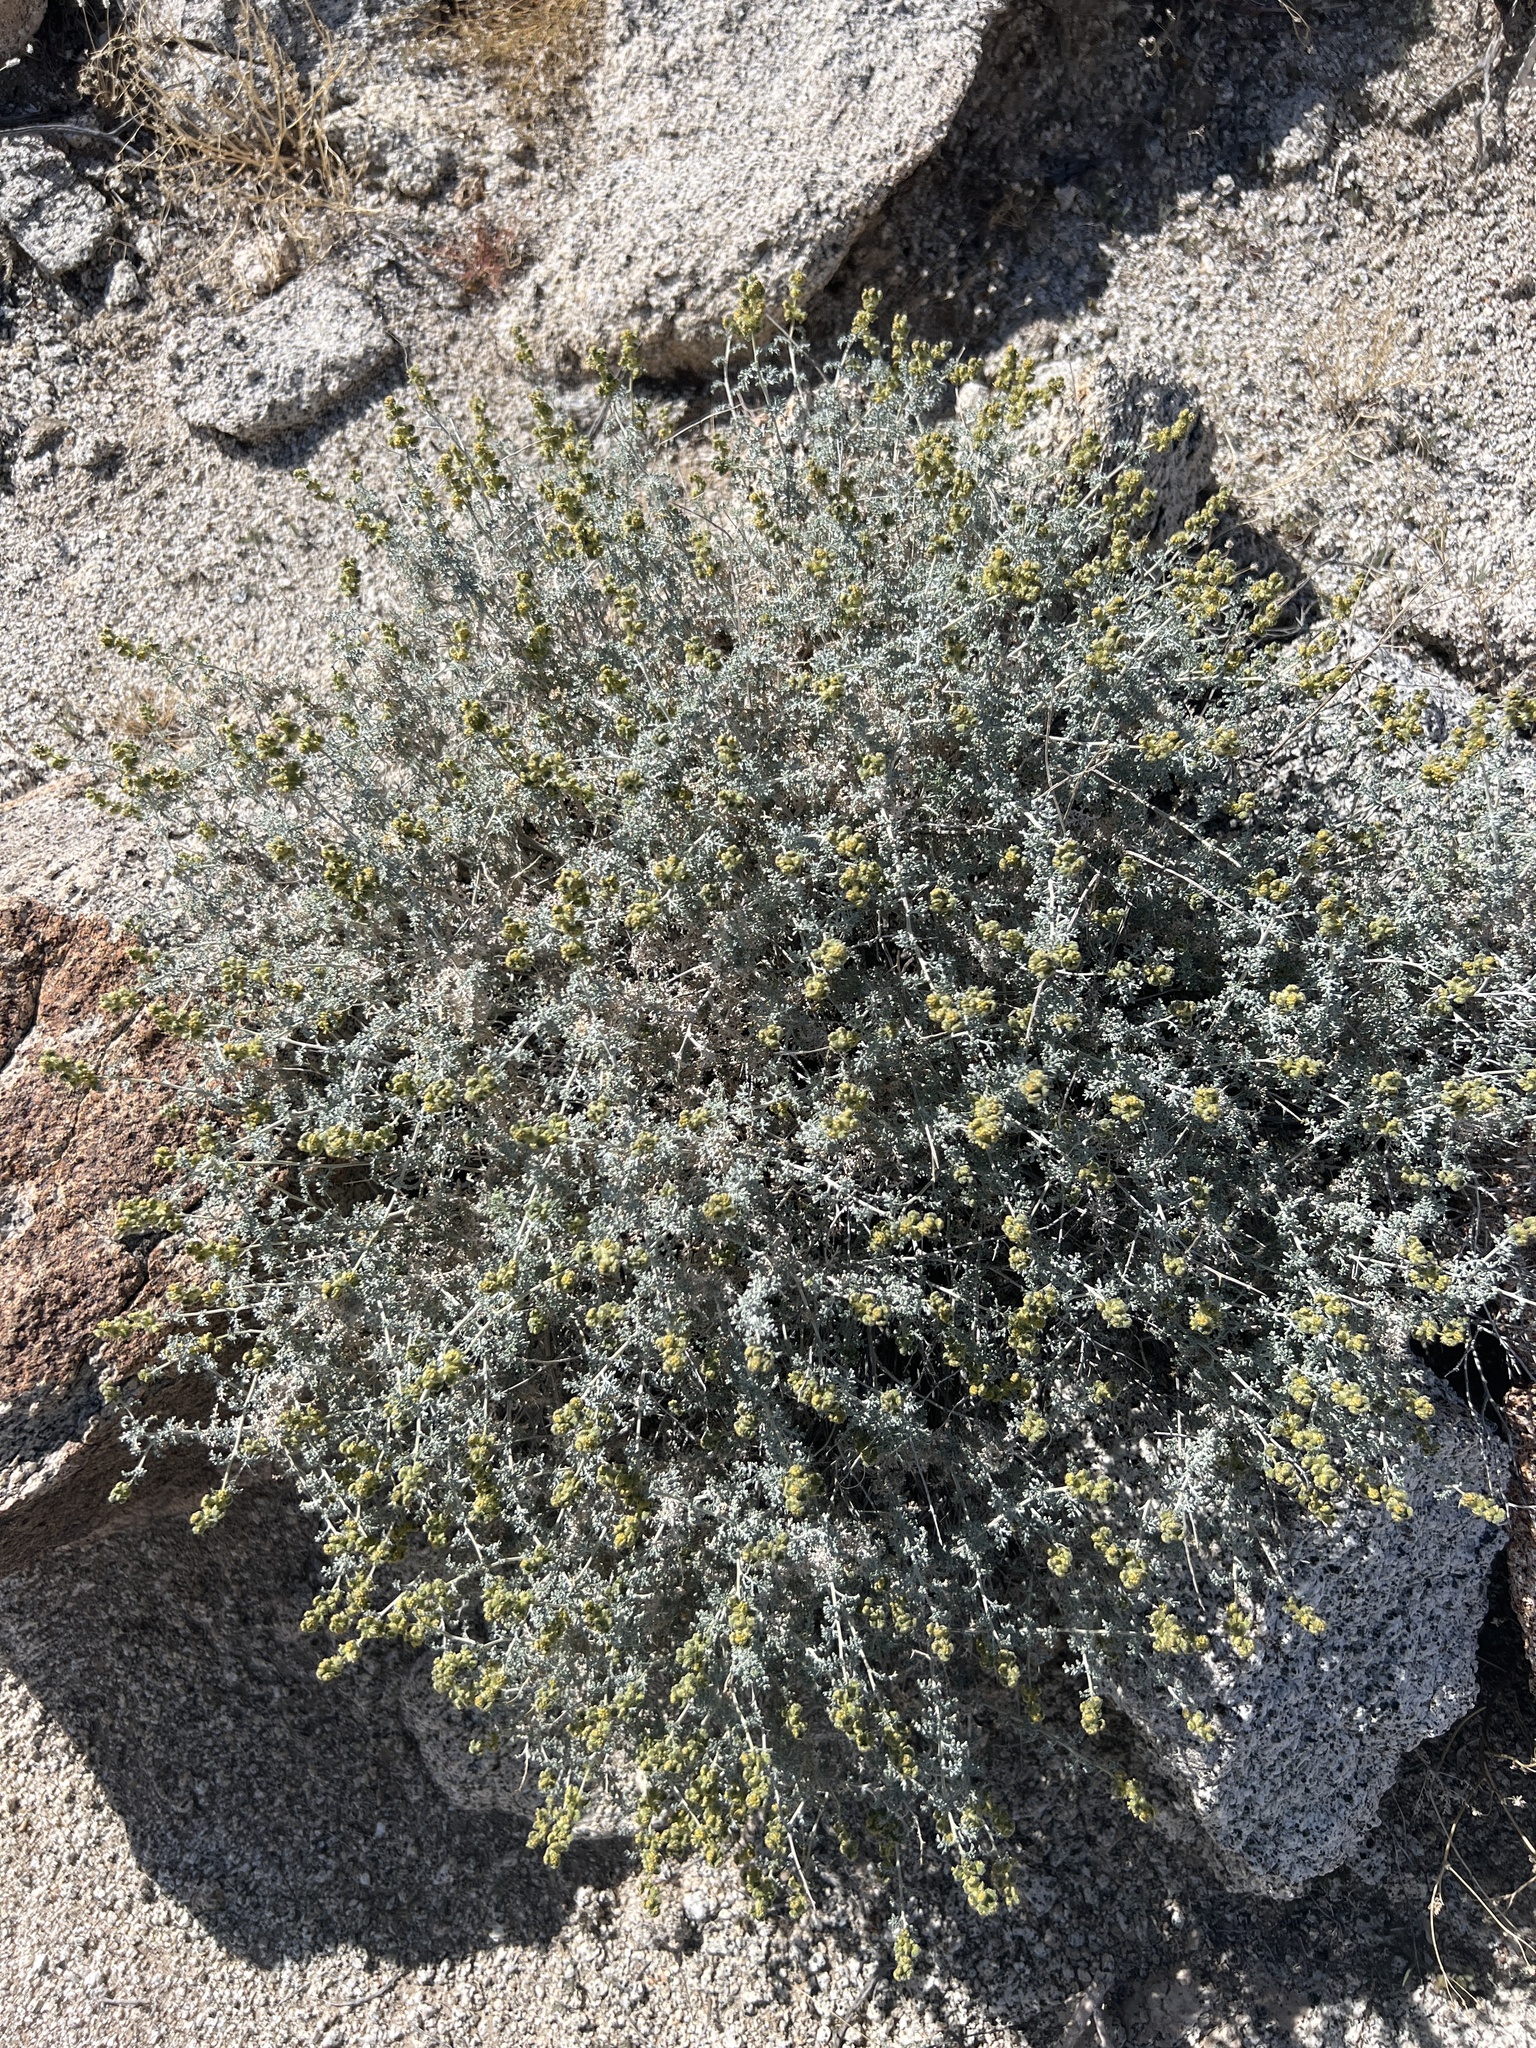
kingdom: Plantae
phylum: Tracheophyta
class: Magnoliopsida
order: Asterales
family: Asteraceae
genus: Ambrosia
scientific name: Ambrosia dumosa
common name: Bur-sage
